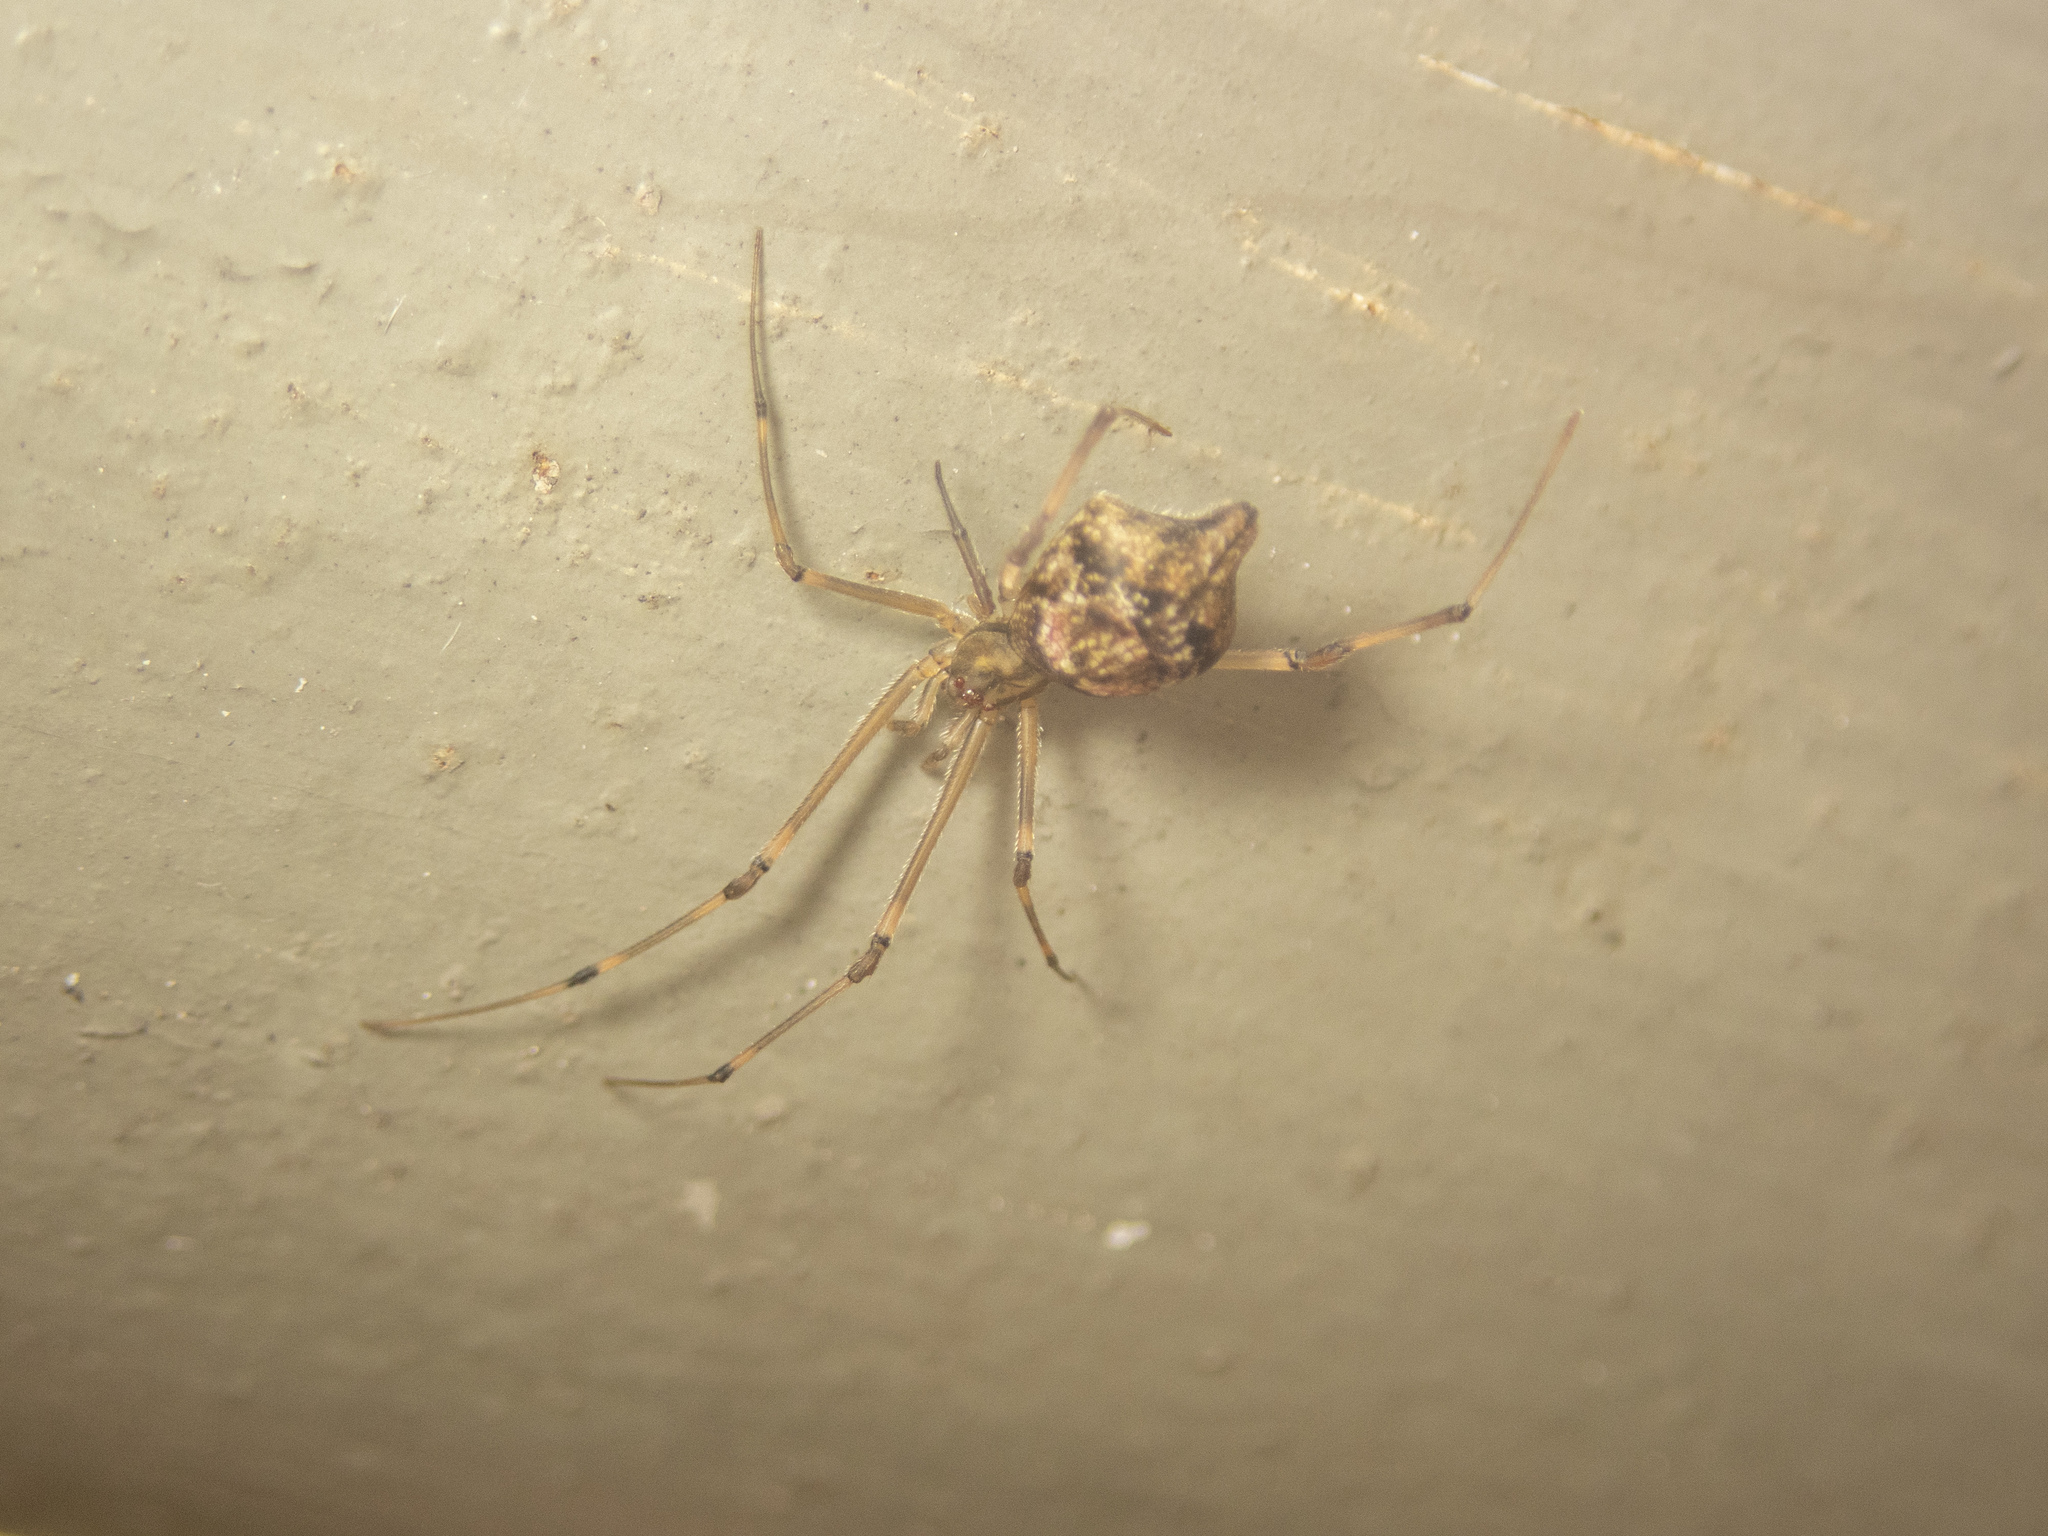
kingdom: Animalia
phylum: Arthropoda
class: Arachnida
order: Araneae
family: Theridiidae
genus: Moneta
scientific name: Moneta mirabilis
